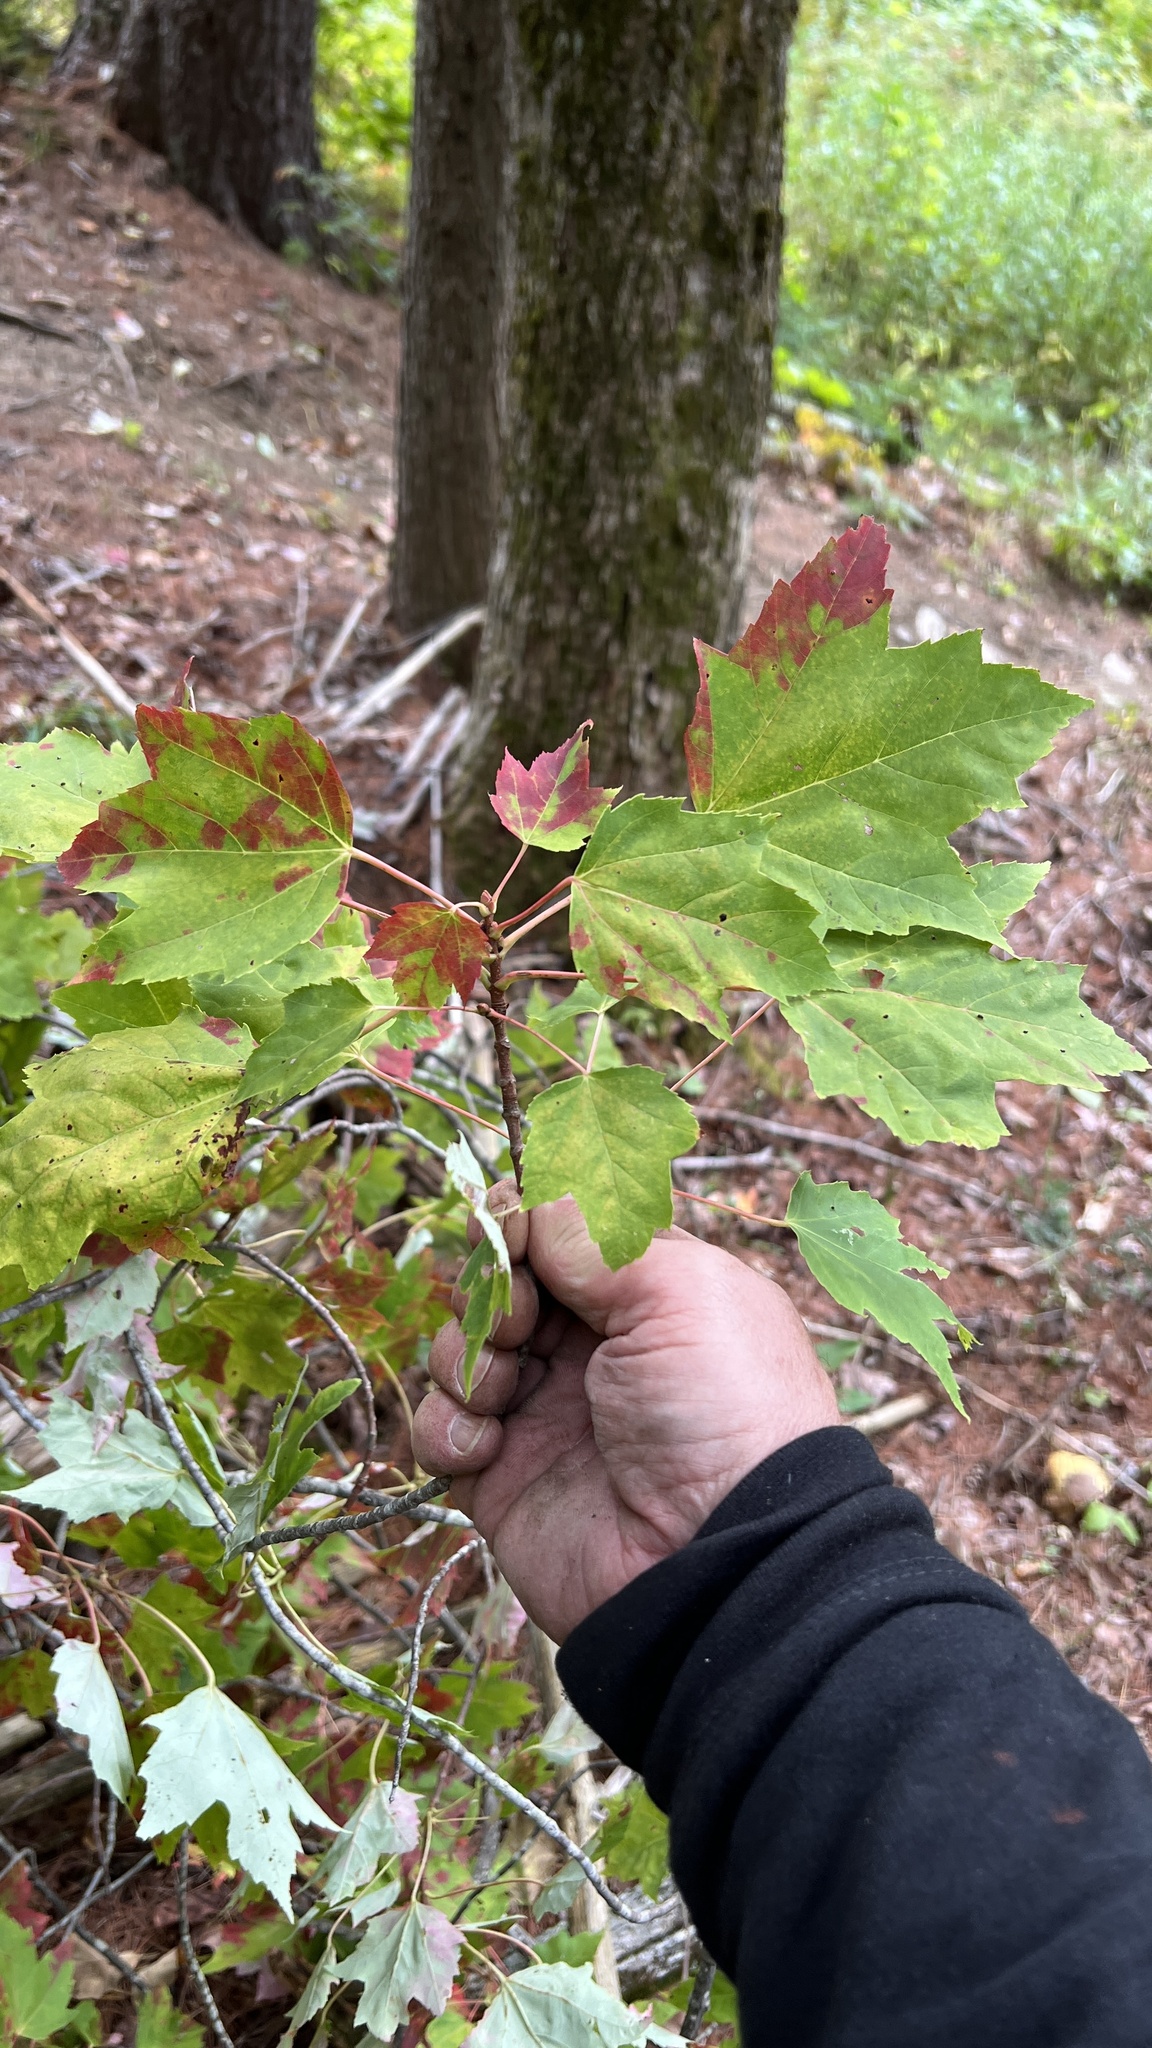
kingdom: Plantae
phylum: Tracheophyta
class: Magnoliopsida
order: Sapindales
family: Sapindaceae
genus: Acer
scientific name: Acer rubrum
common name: Red maple
